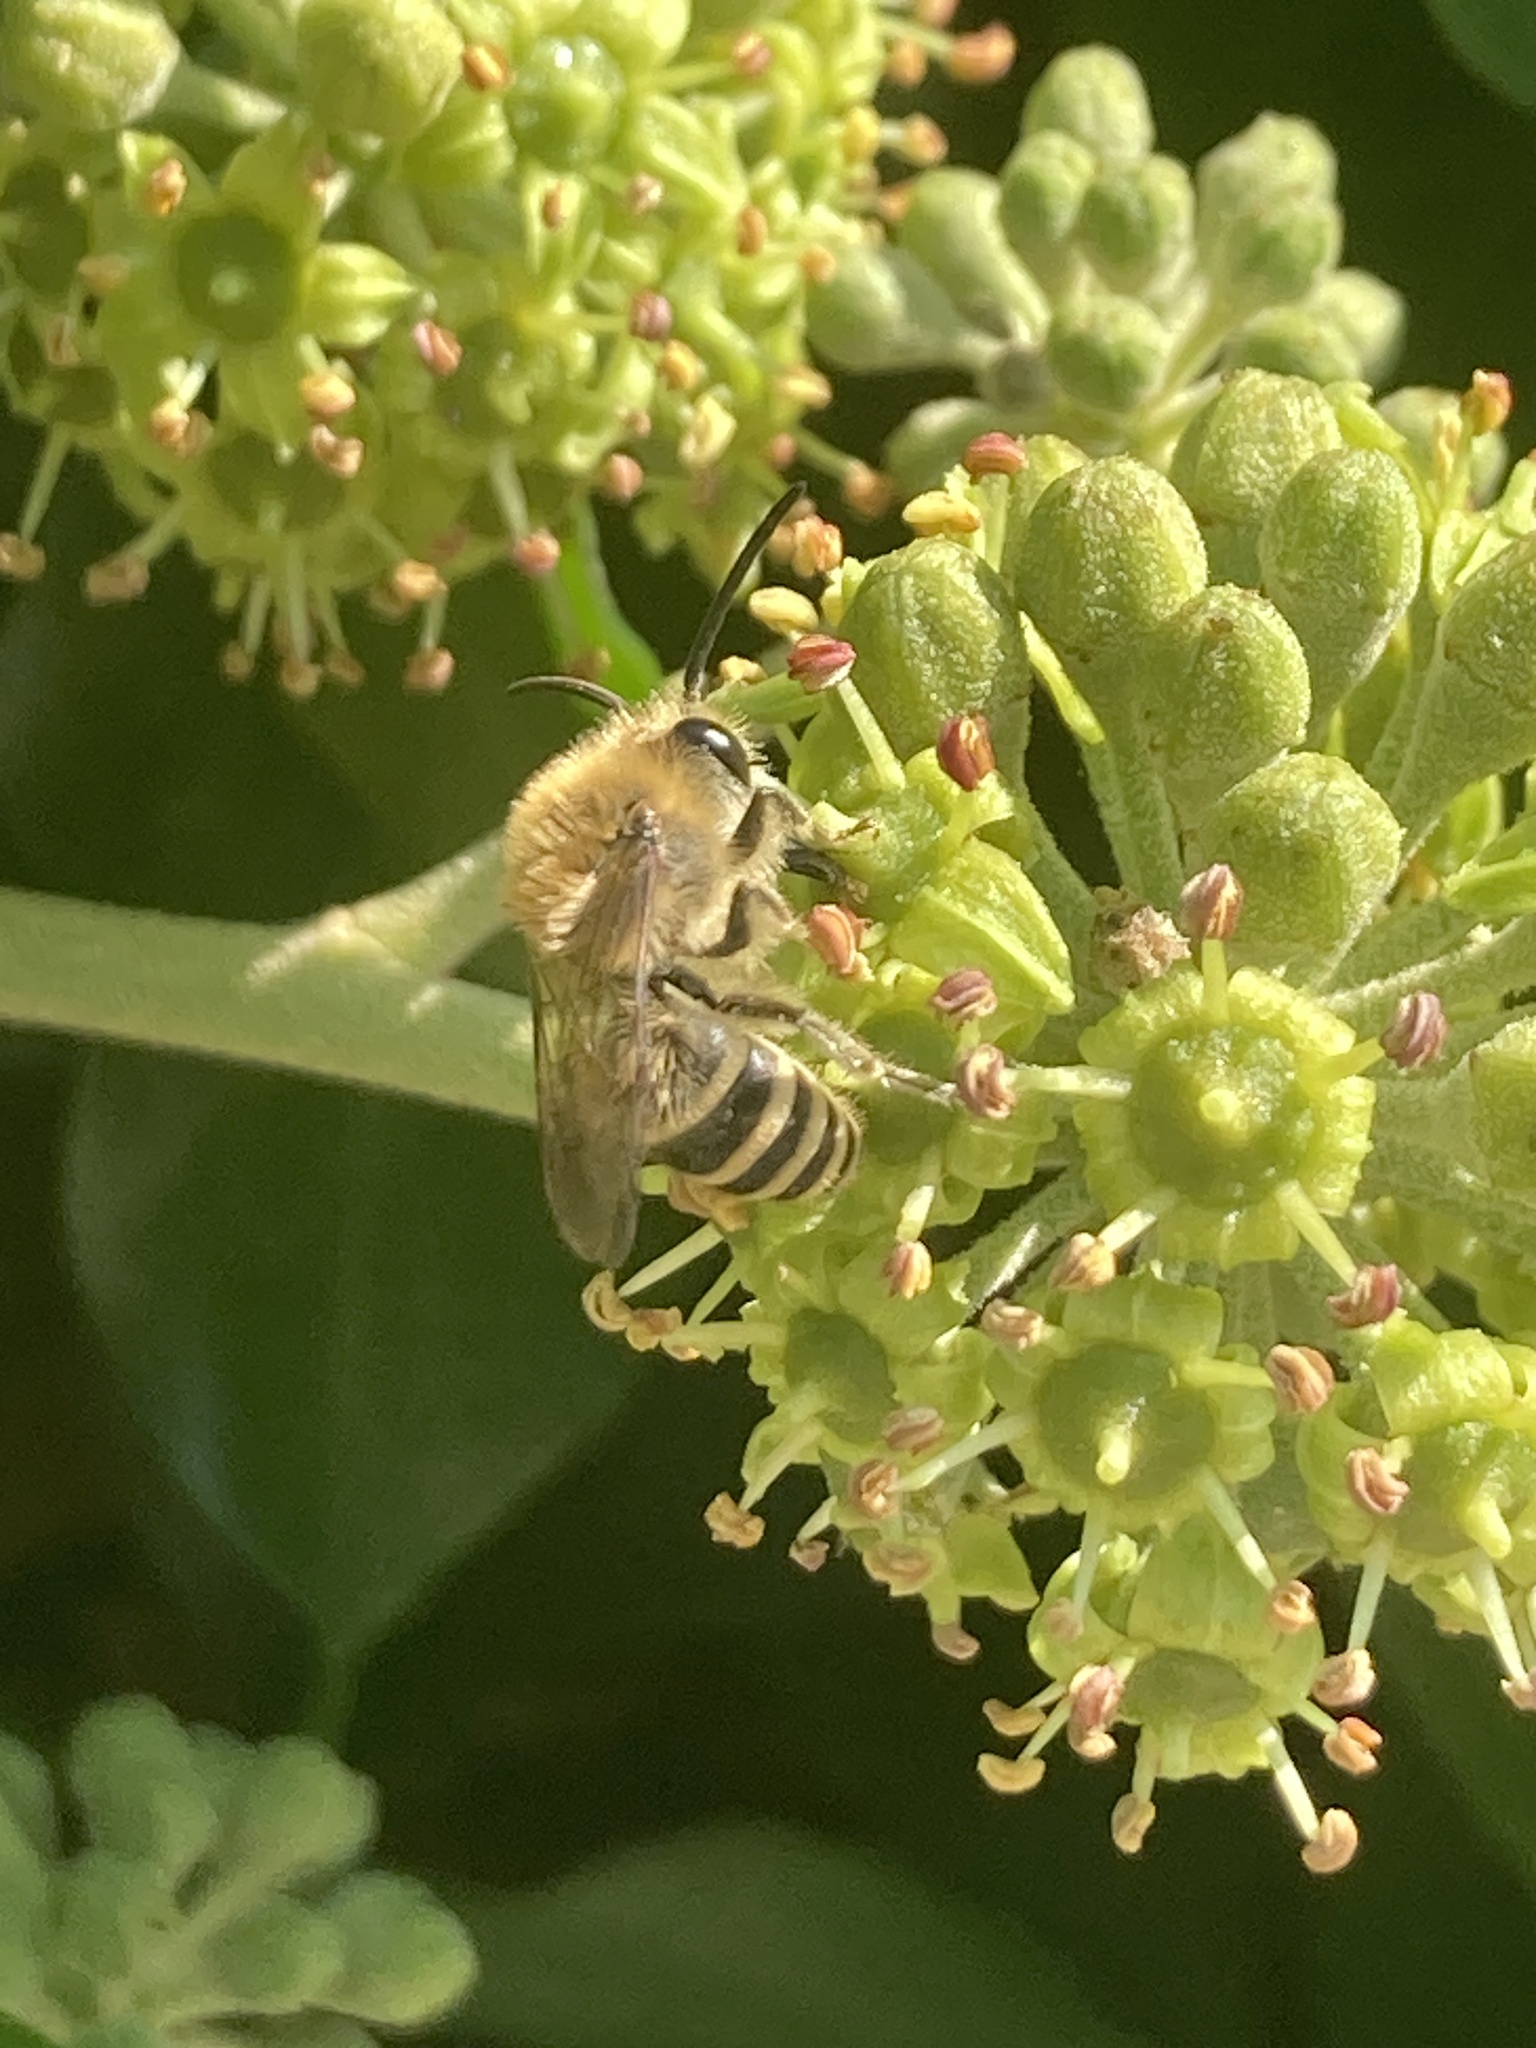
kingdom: Animalia
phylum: Arthropoda
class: Insecta
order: Hymenoptera
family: Colletidae
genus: Colletes
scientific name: Colletes hederae
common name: Ivy bee
